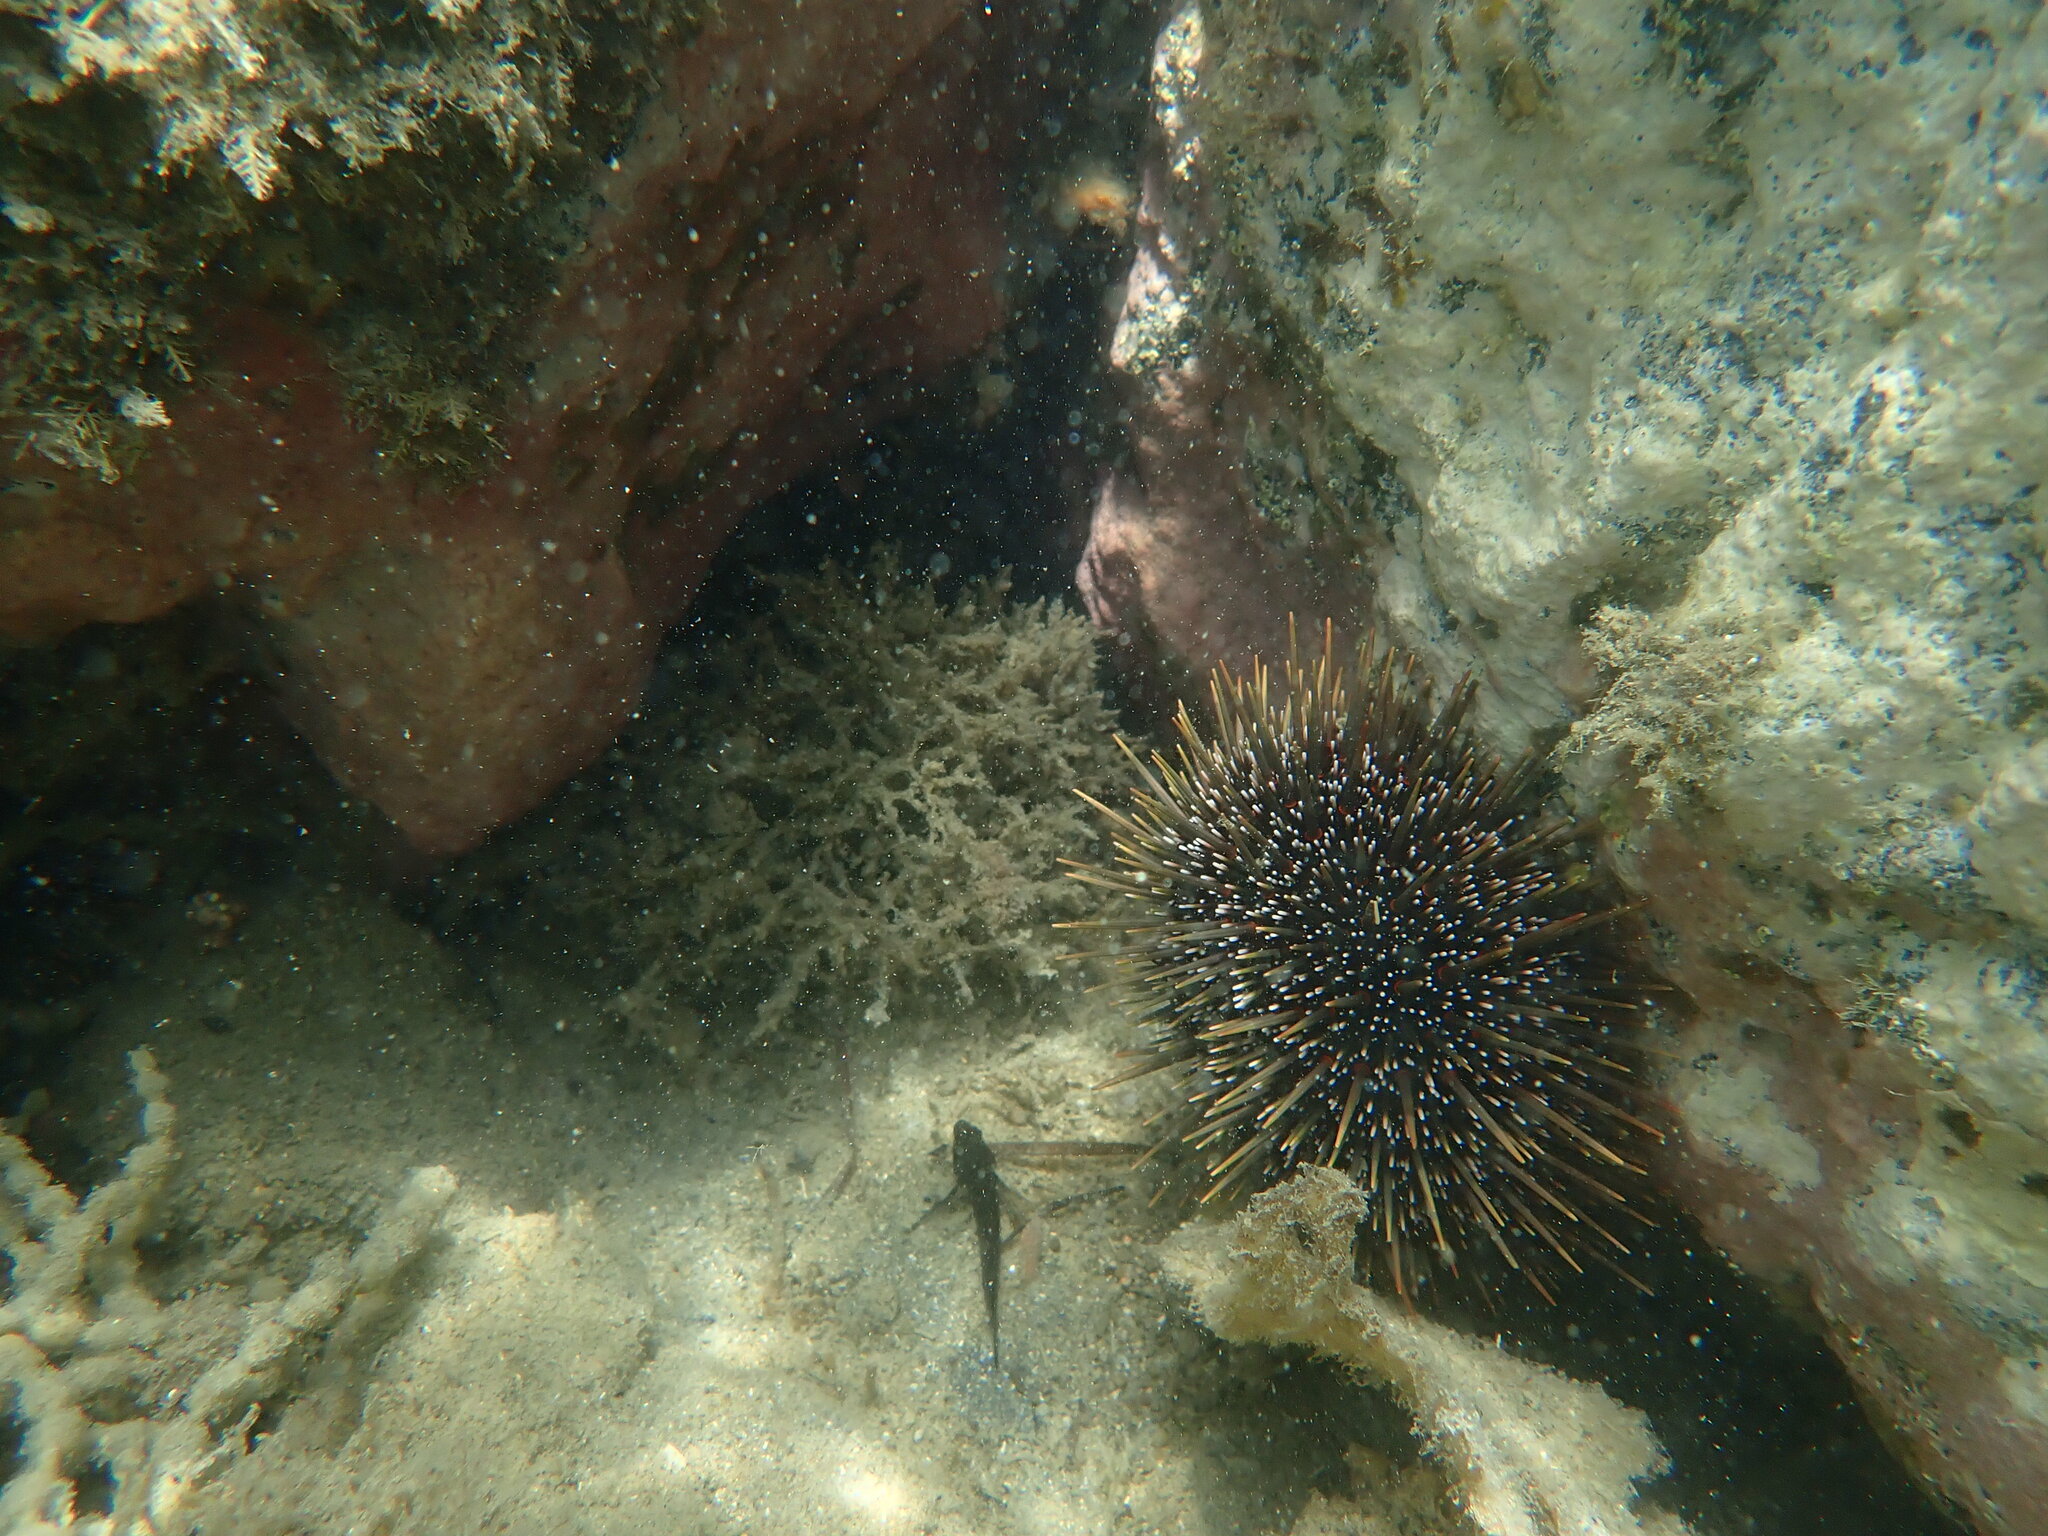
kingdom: Animalia
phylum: Echinodermata
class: Echinoidea
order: Camarodonta
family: Echinometridae
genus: Evechinus
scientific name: Evechinus chloroticus
